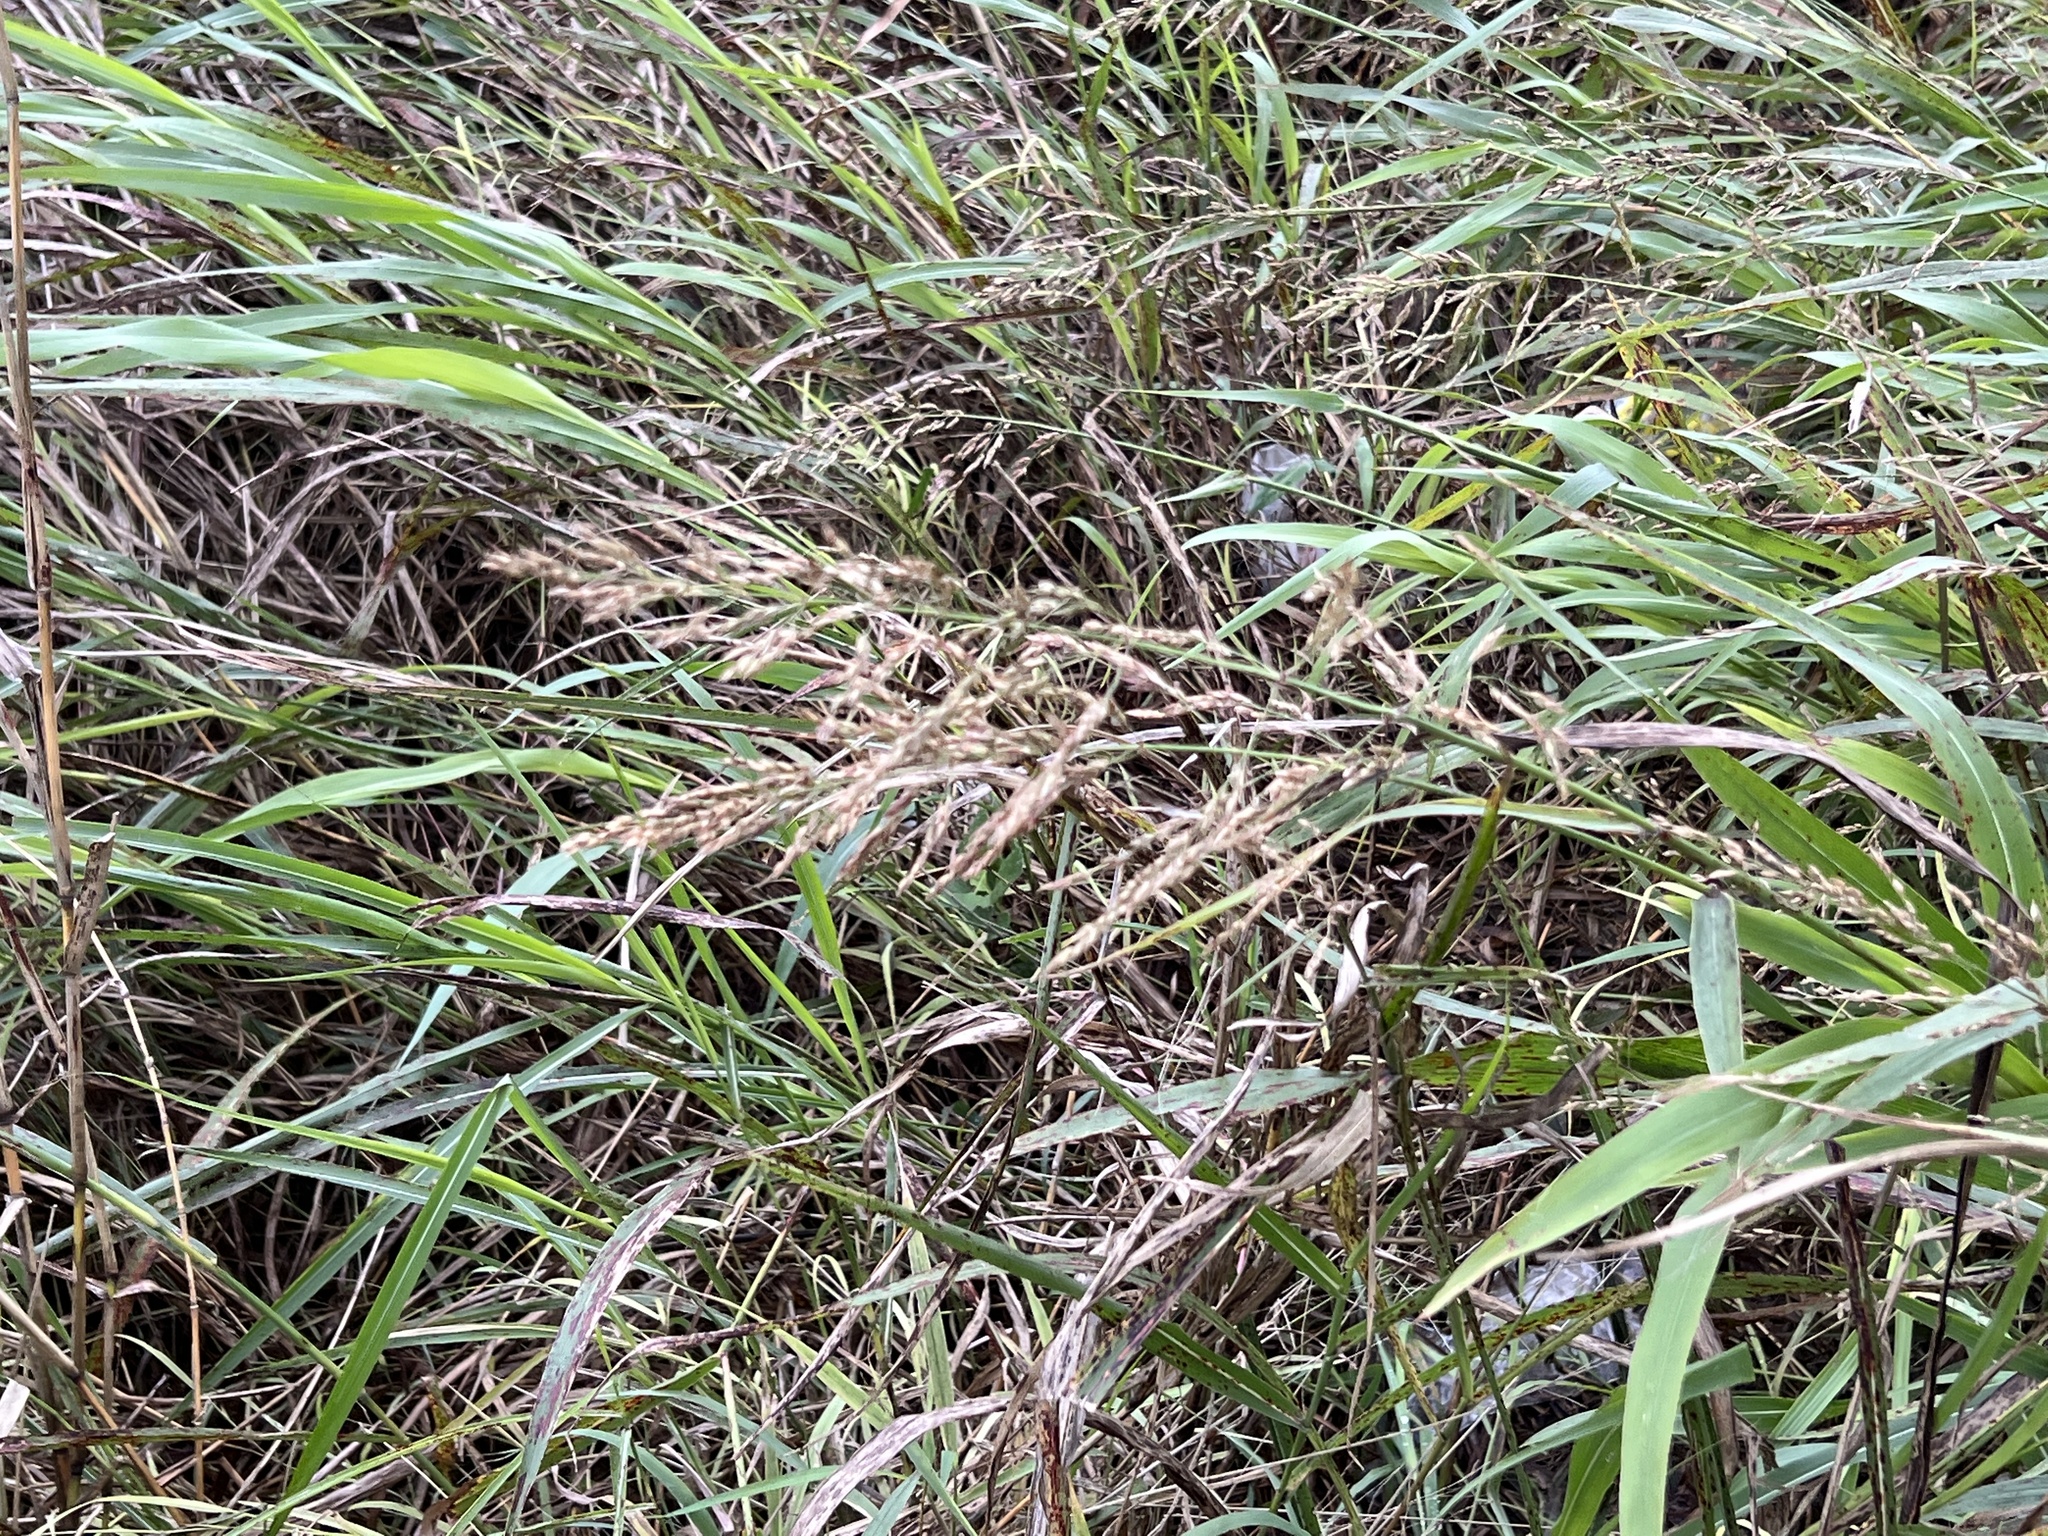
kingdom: Plantae
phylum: Tracheophyta
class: Liliopsida
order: Poales
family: Poaceae
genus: Sorghum
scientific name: Sorghum halepense
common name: Johnson-grass
